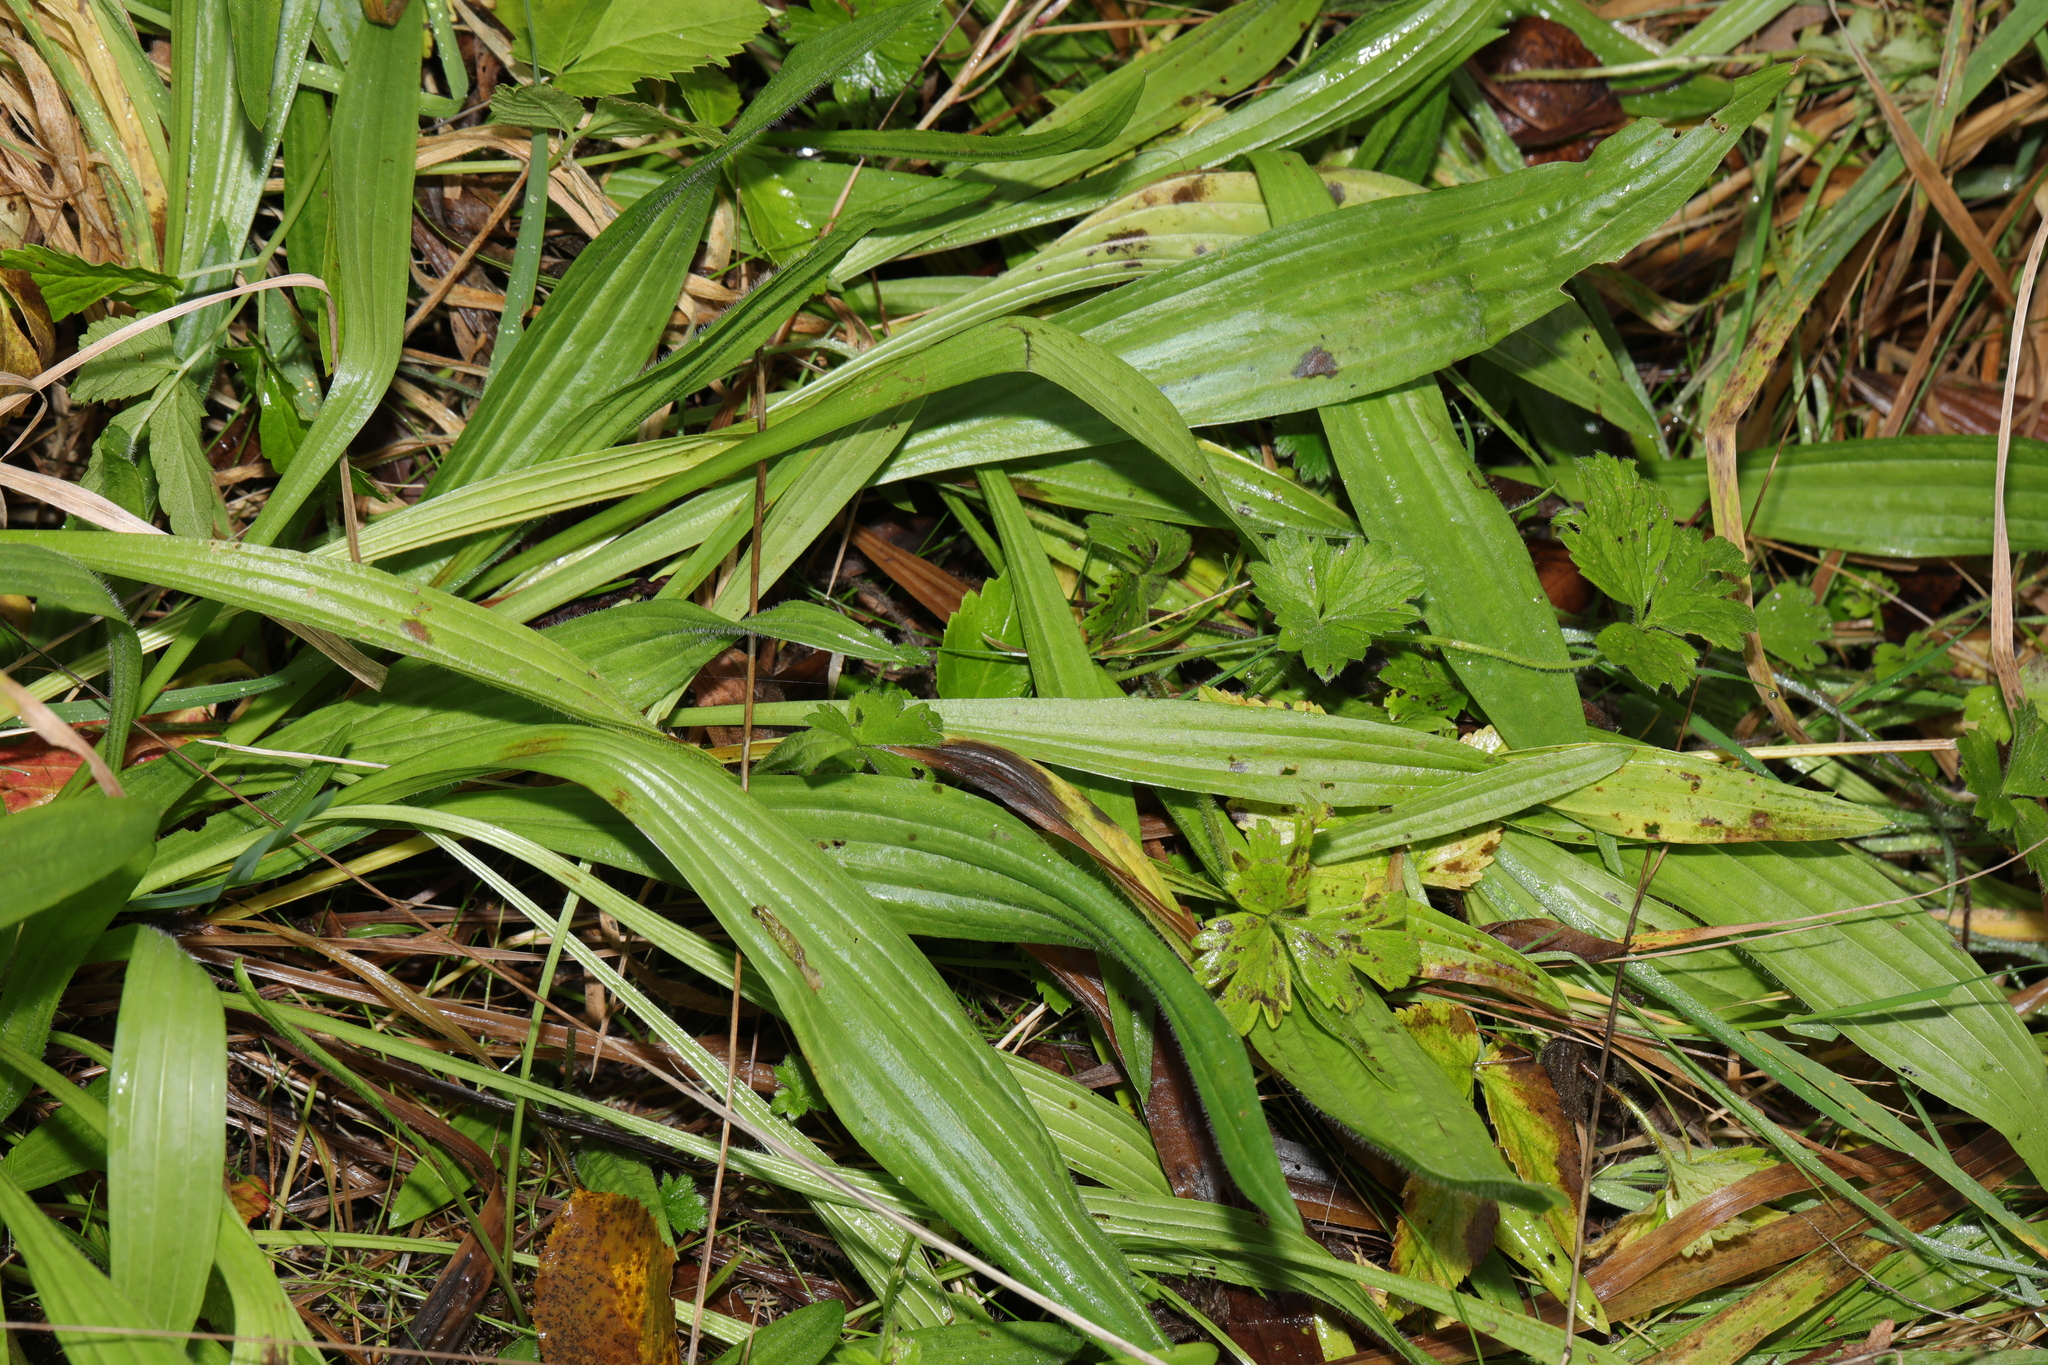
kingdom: Plantae
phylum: Tracheophyta
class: Magnoliopsida
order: Lamiales
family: Plantaginaceae
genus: Plantago
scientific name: Plantago lanceolata
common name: Ribwort plantain
